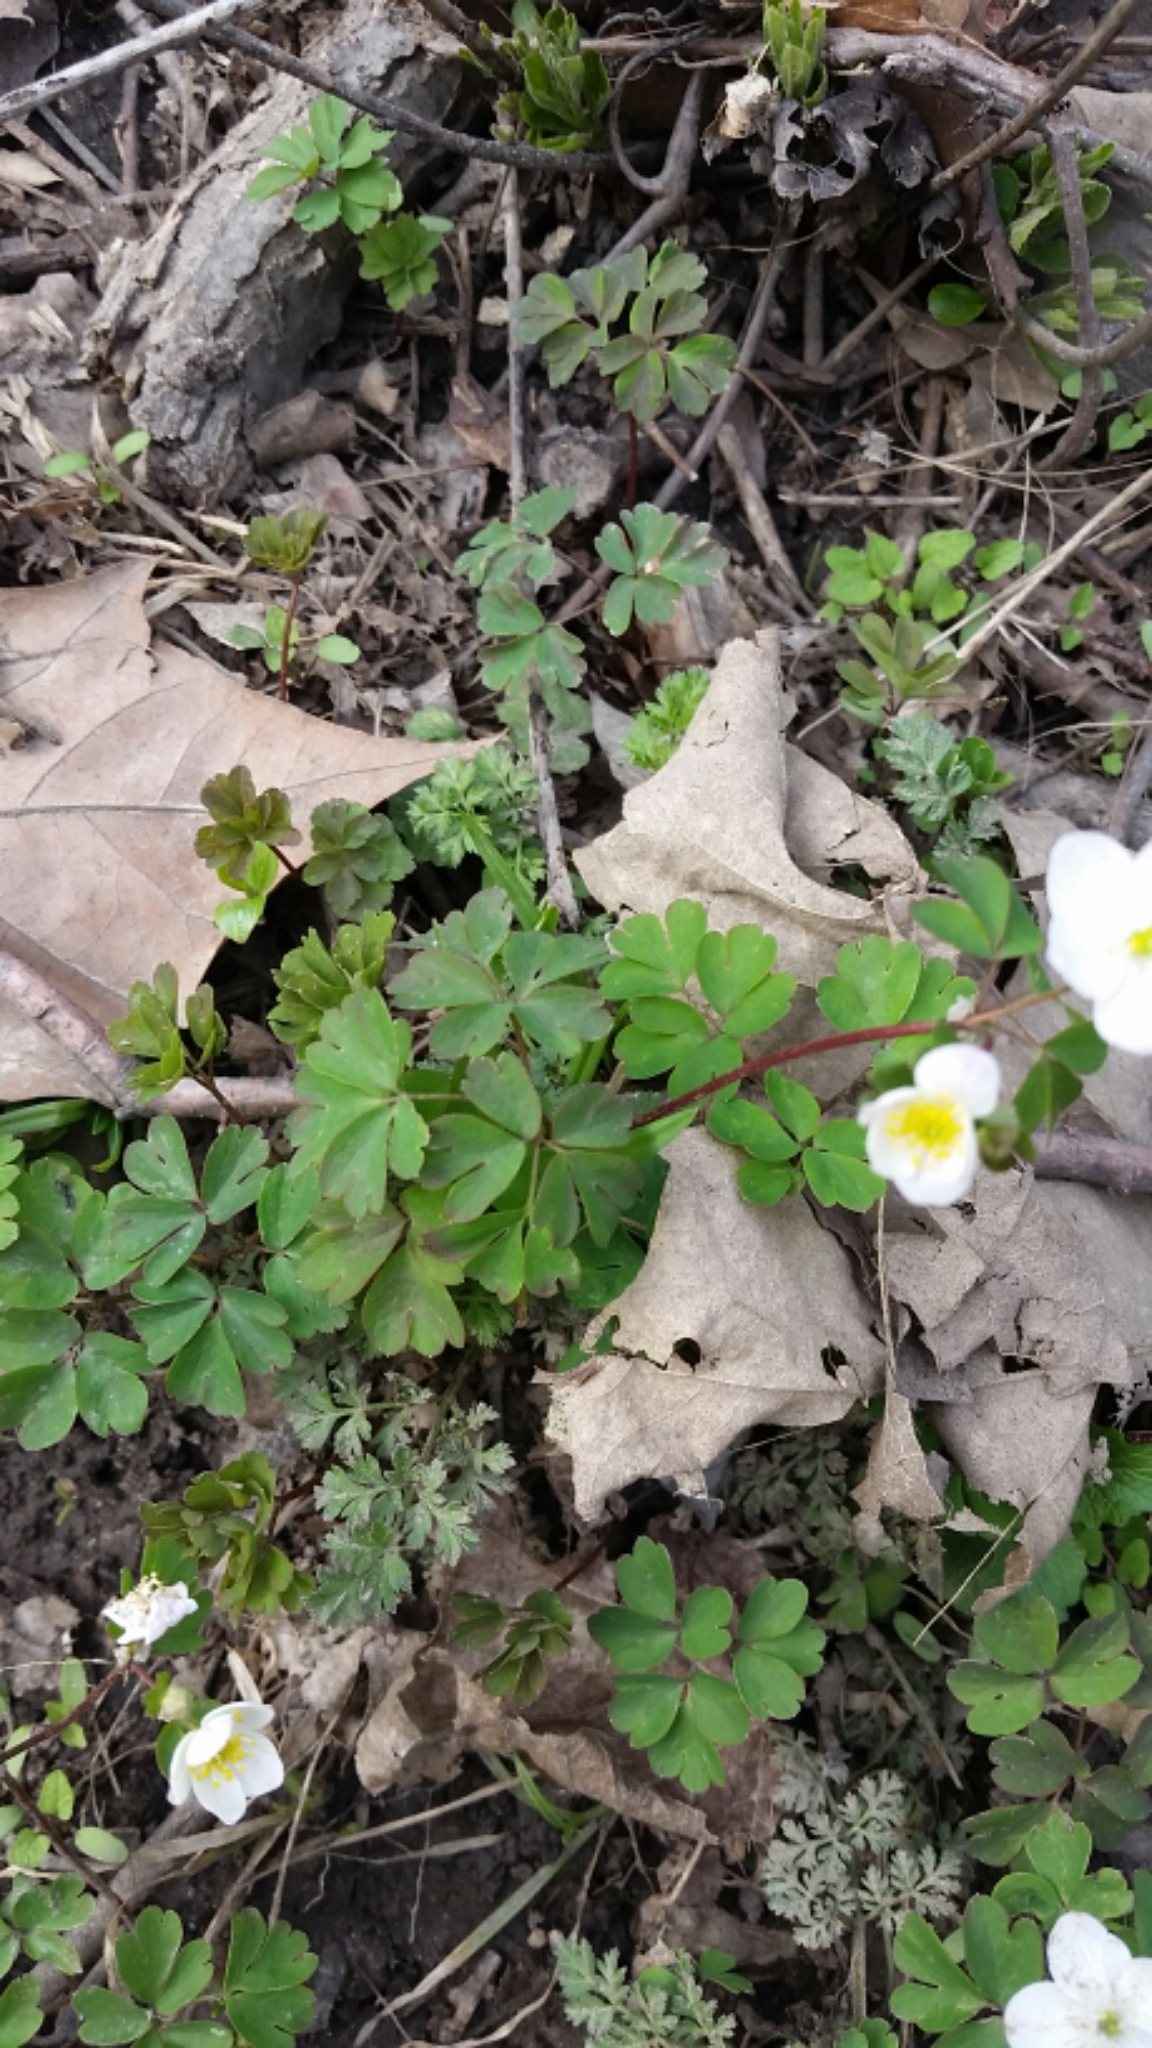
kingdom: Plantae
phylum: Tracheophyta
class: Magnoliopsida
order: Ranunculales
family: Ranunculaceae
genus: Enemion
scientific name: Enemion biternatum
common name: Eastern false rue-anemone
